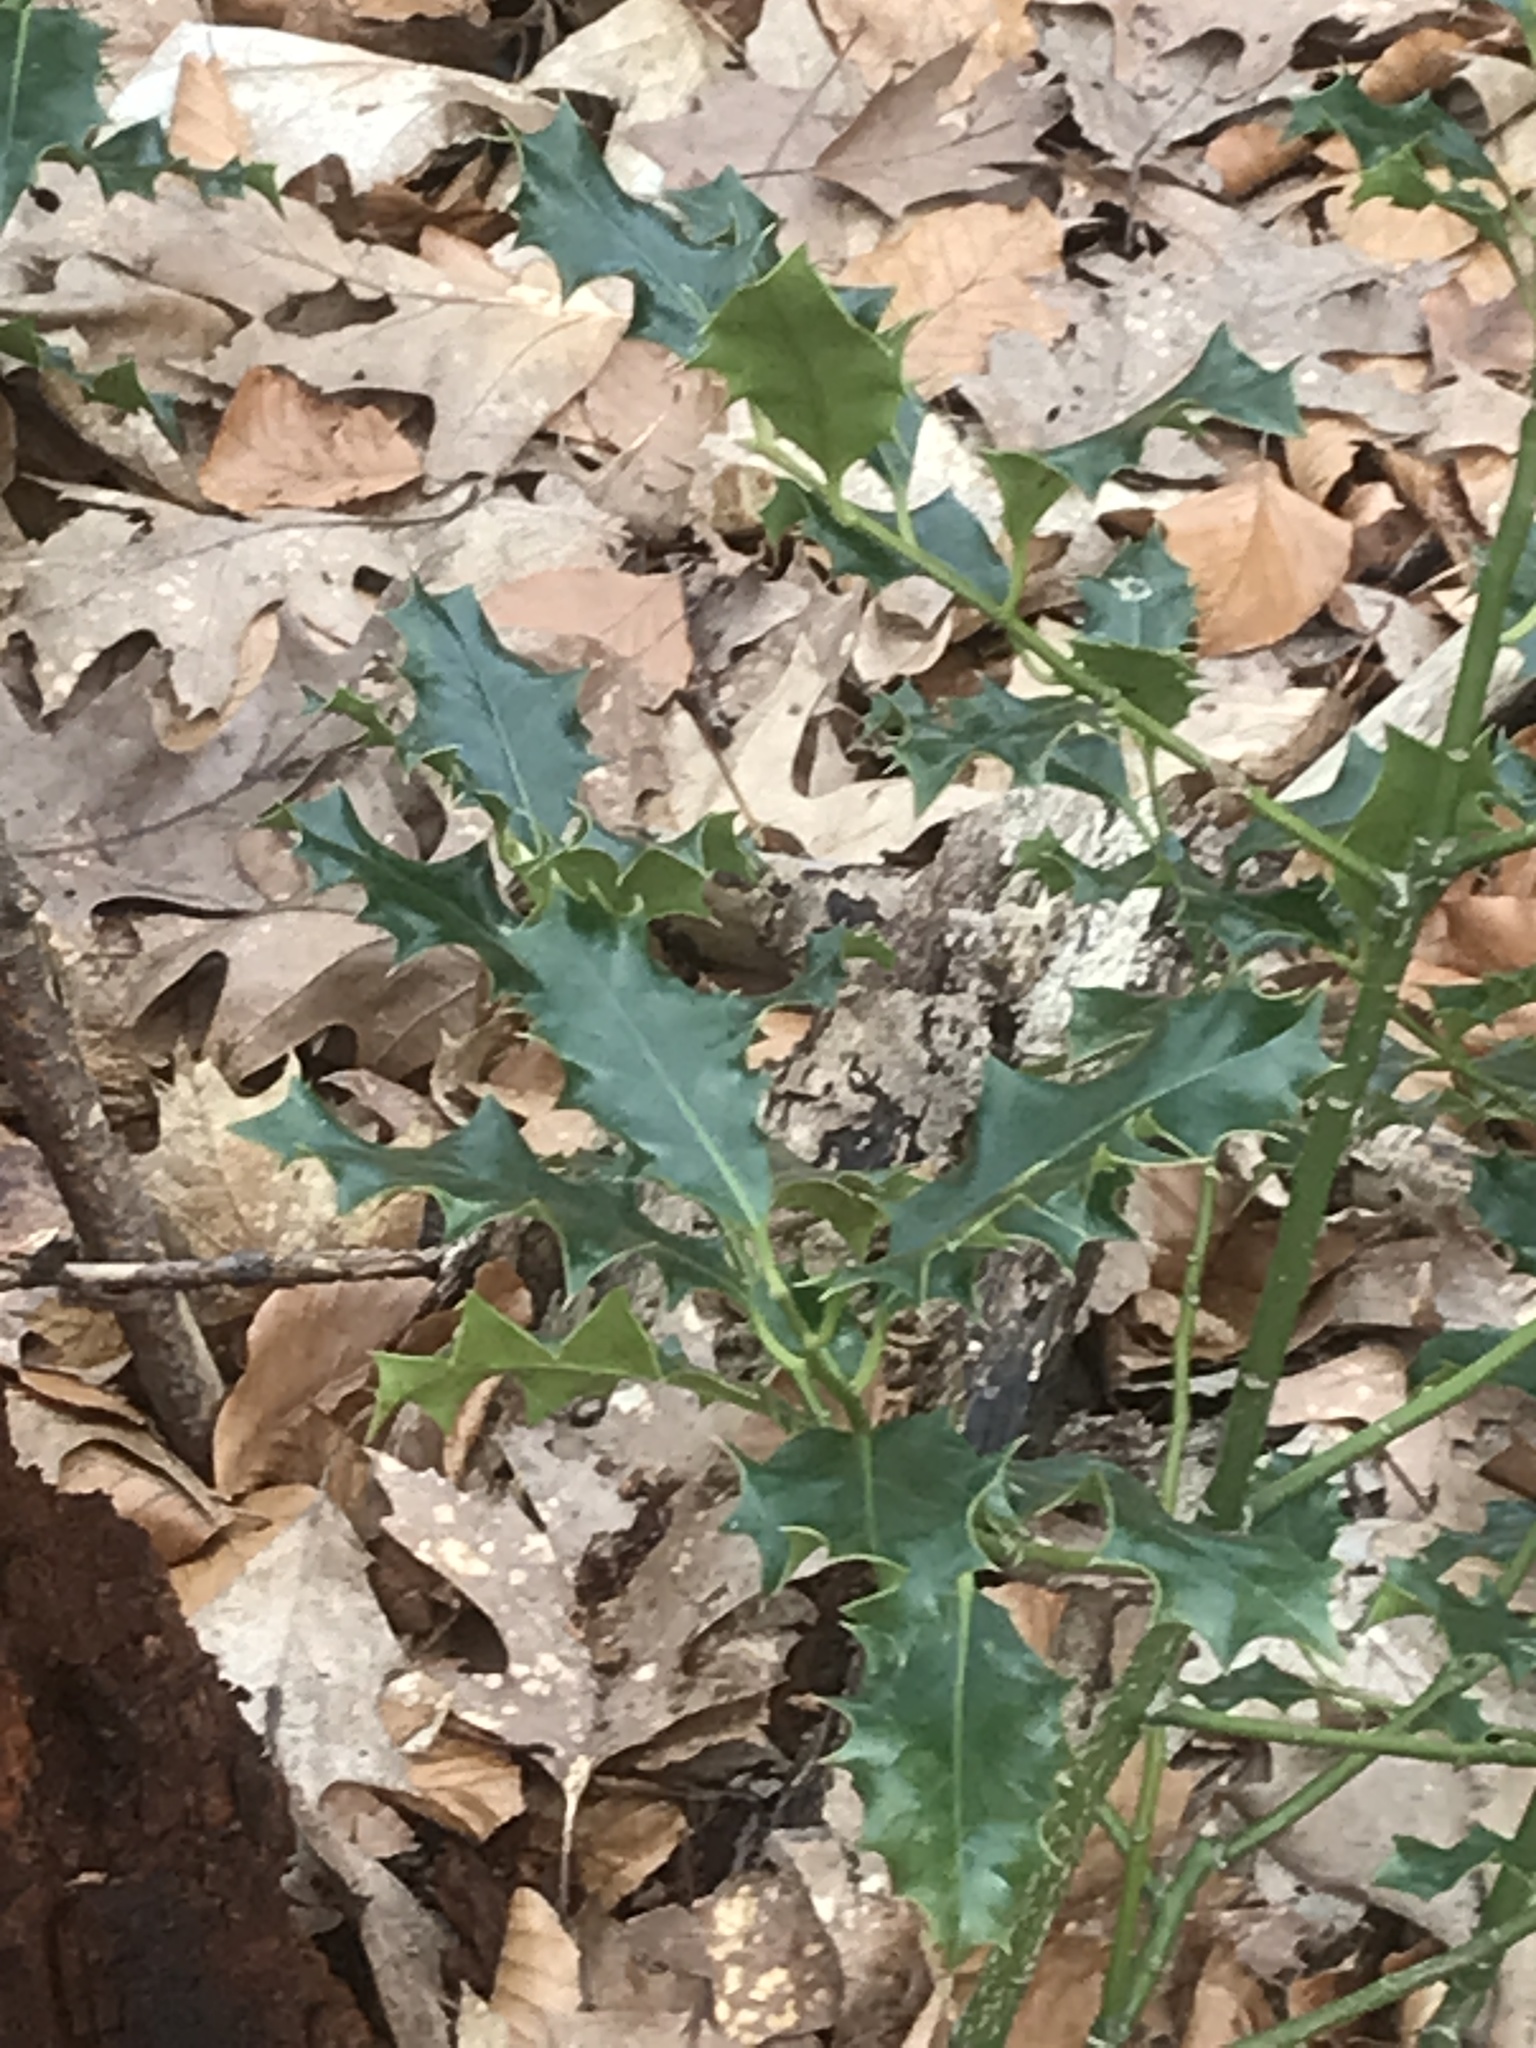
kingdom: Plantae
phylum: Tracheophyta
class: Magnoliopsida
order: Aquifoliales
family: Aquifoliaceae
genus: Ilex
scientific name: Ilex aquifolium
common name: English holly
